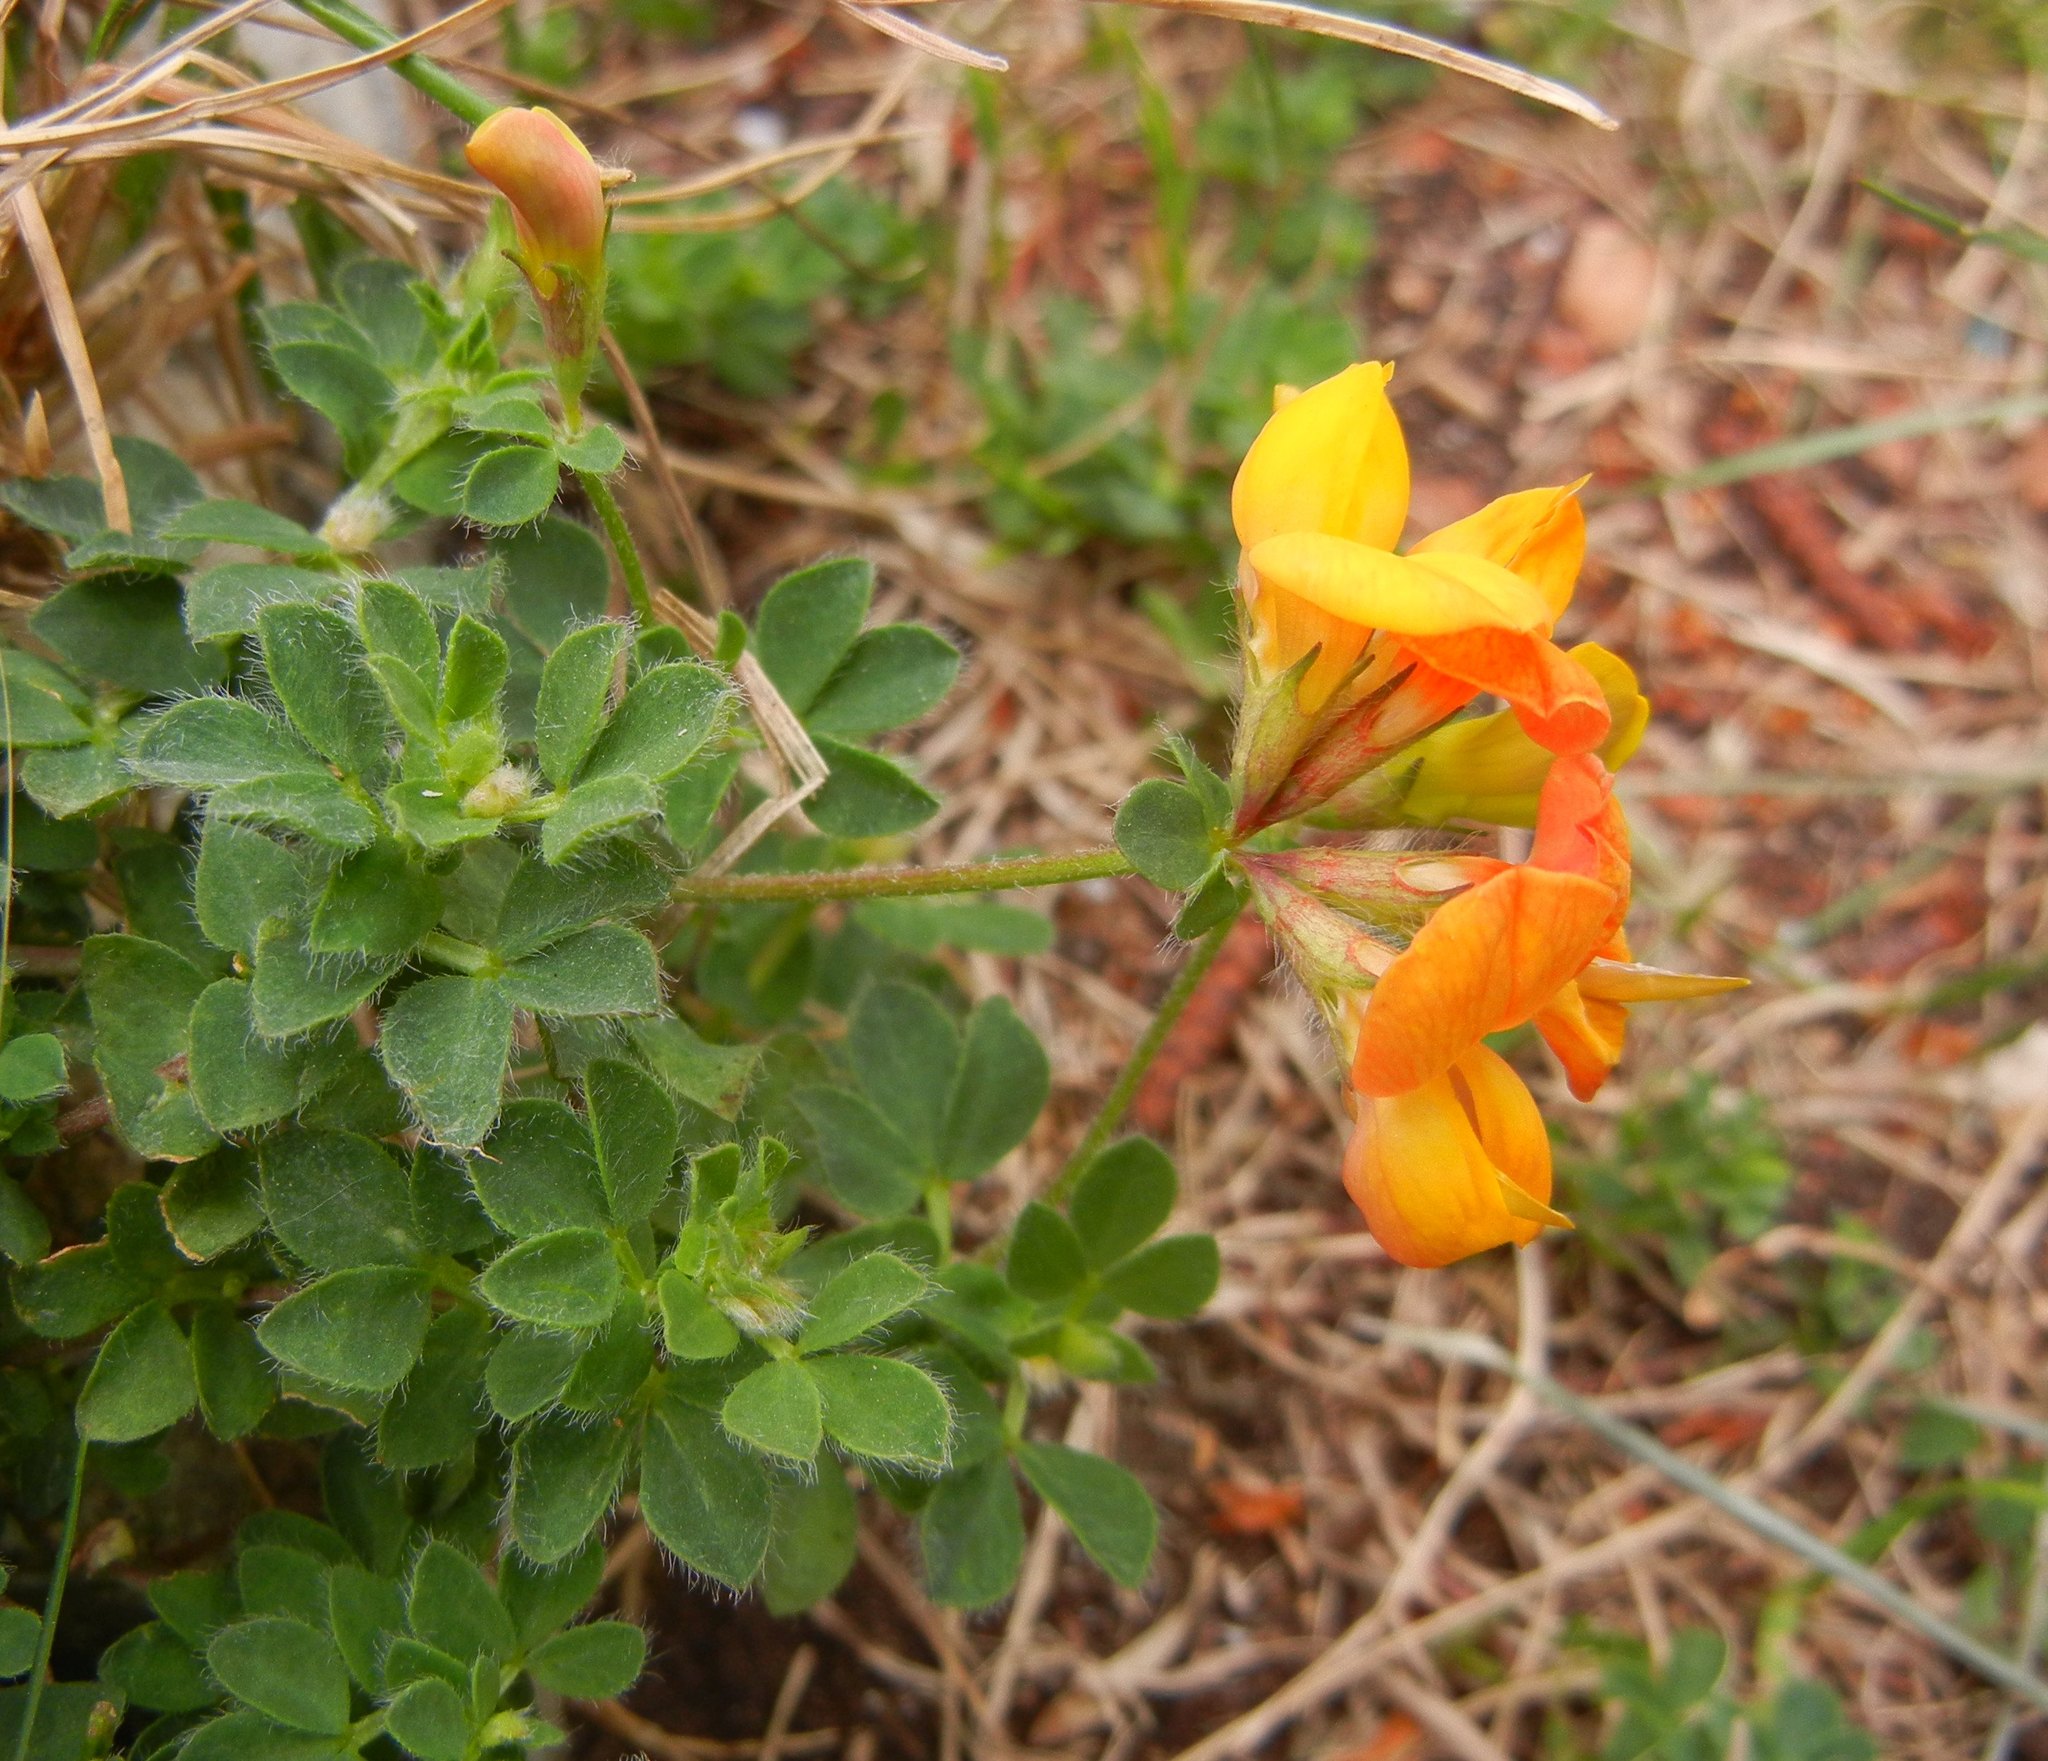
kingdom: Plantae
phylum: Tracheophyta
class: Magnoliopsida
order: Fabales
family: Fabaceae
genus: Lotus
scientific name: Lotus corniculatus
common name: Common bird's-foot-trefoil
